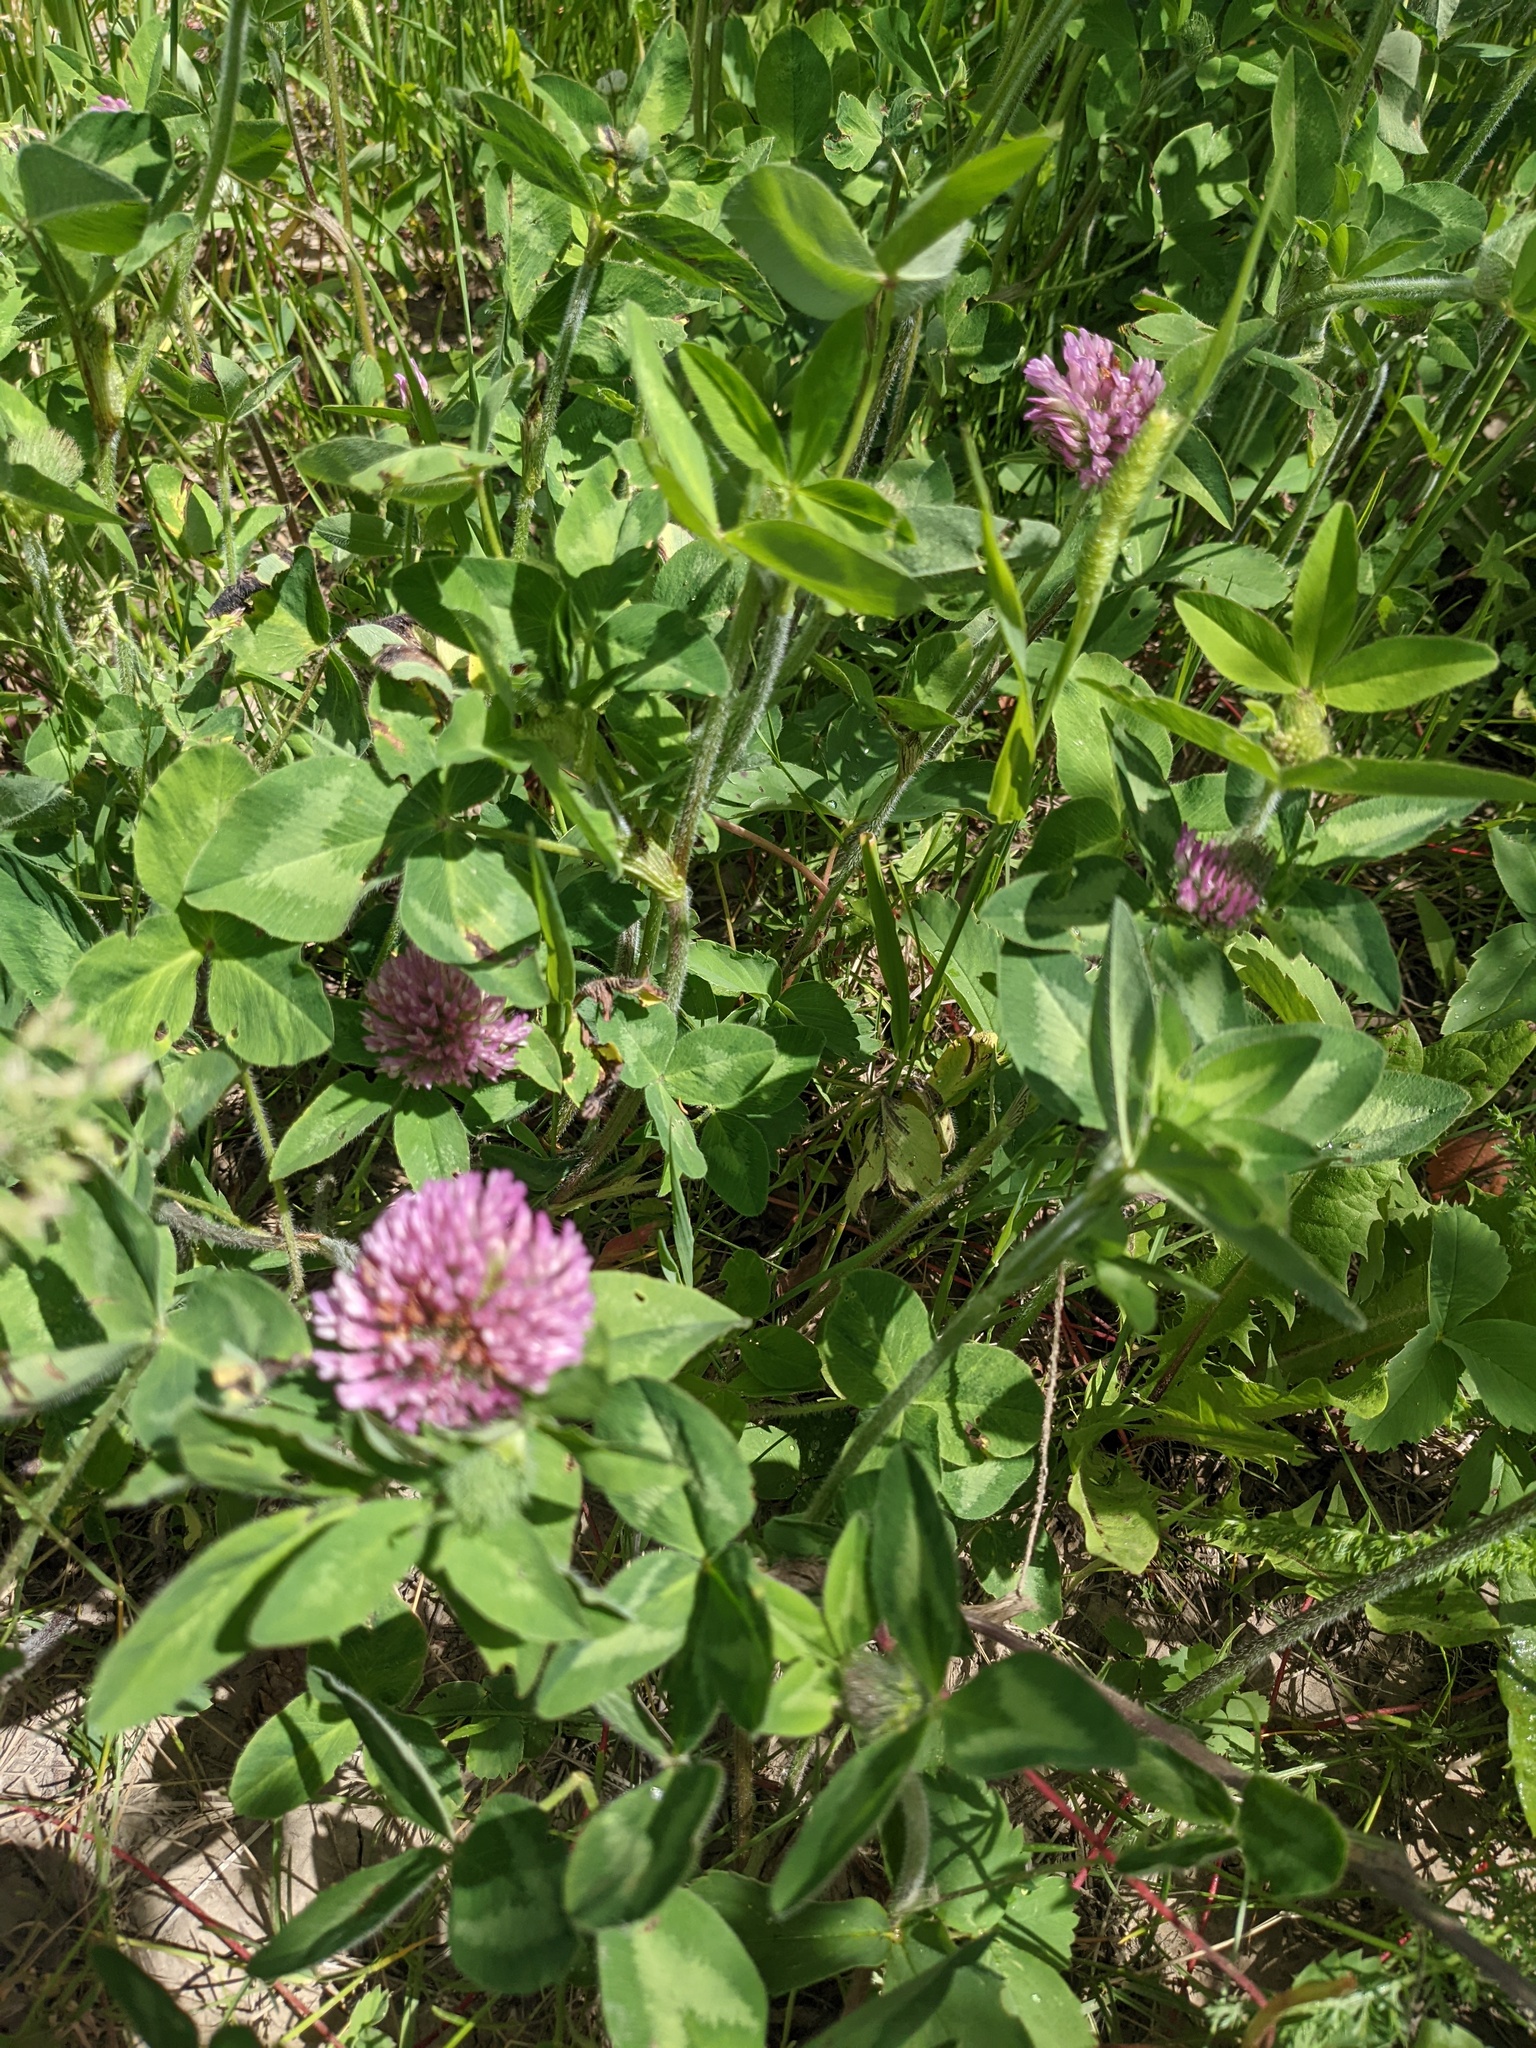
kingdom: Plantae
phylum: Tracheophyta
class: Magnoliopsida
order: Fabales
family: Fabaceae
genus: Trifolium
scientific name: Trifolium pratense
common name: Red clover
